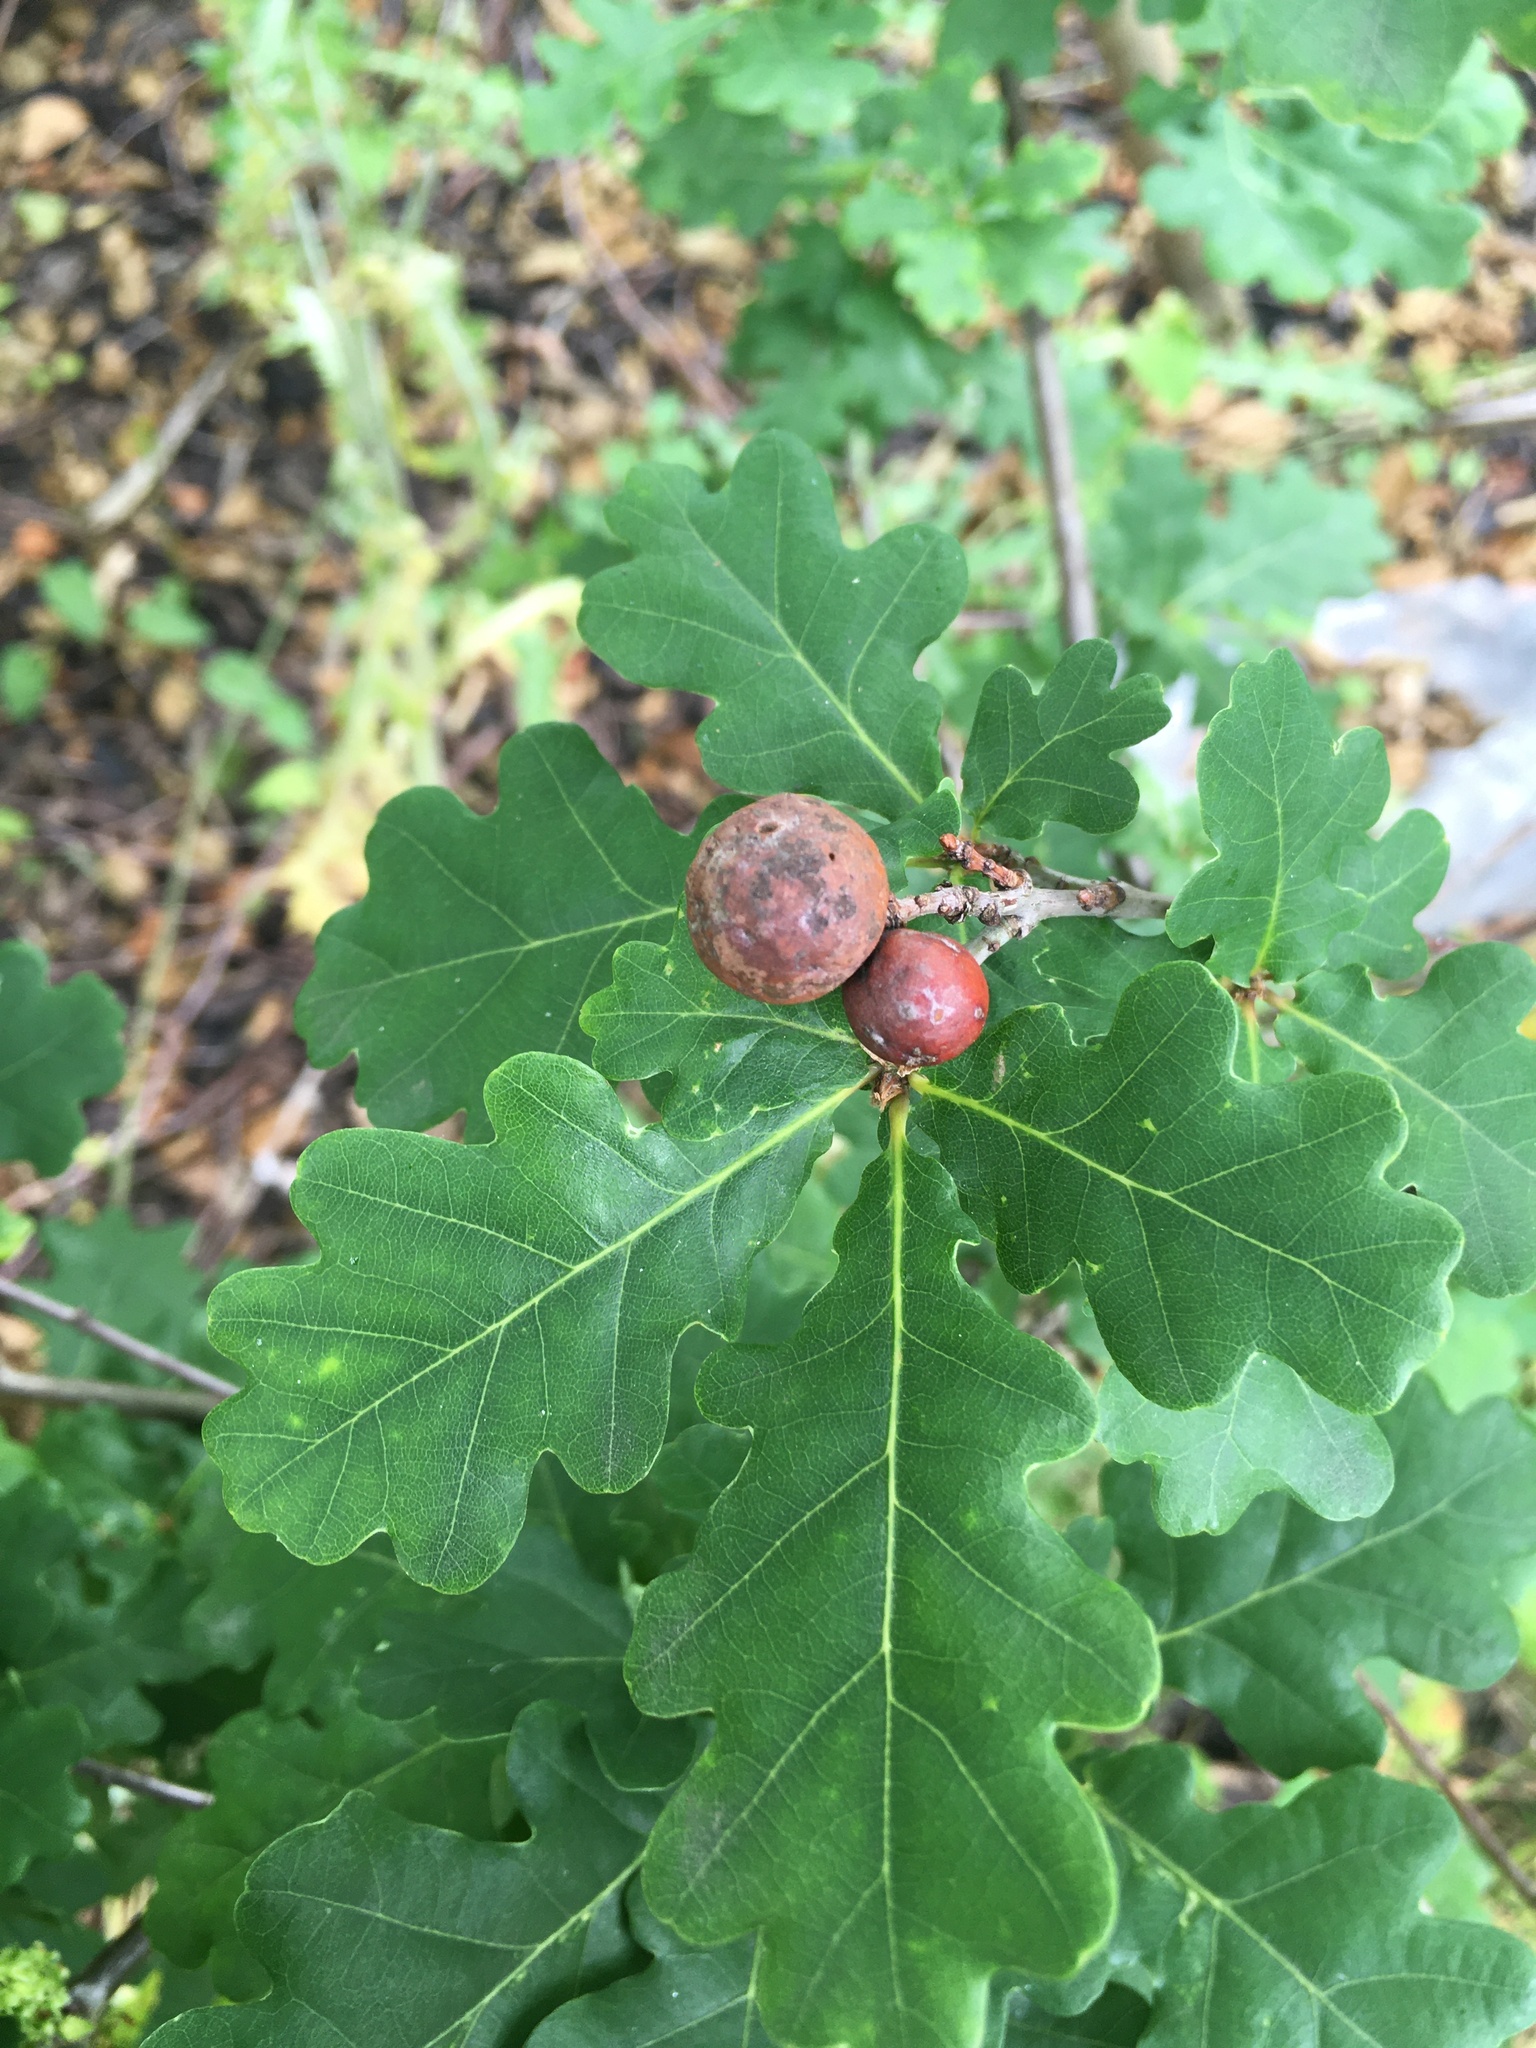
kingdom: Animalia
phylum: Arthropoda
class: Insecta
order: Hymenoptera
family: Cynipidae
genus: Andricus
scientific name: Andricus kollari
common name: Marble gall
